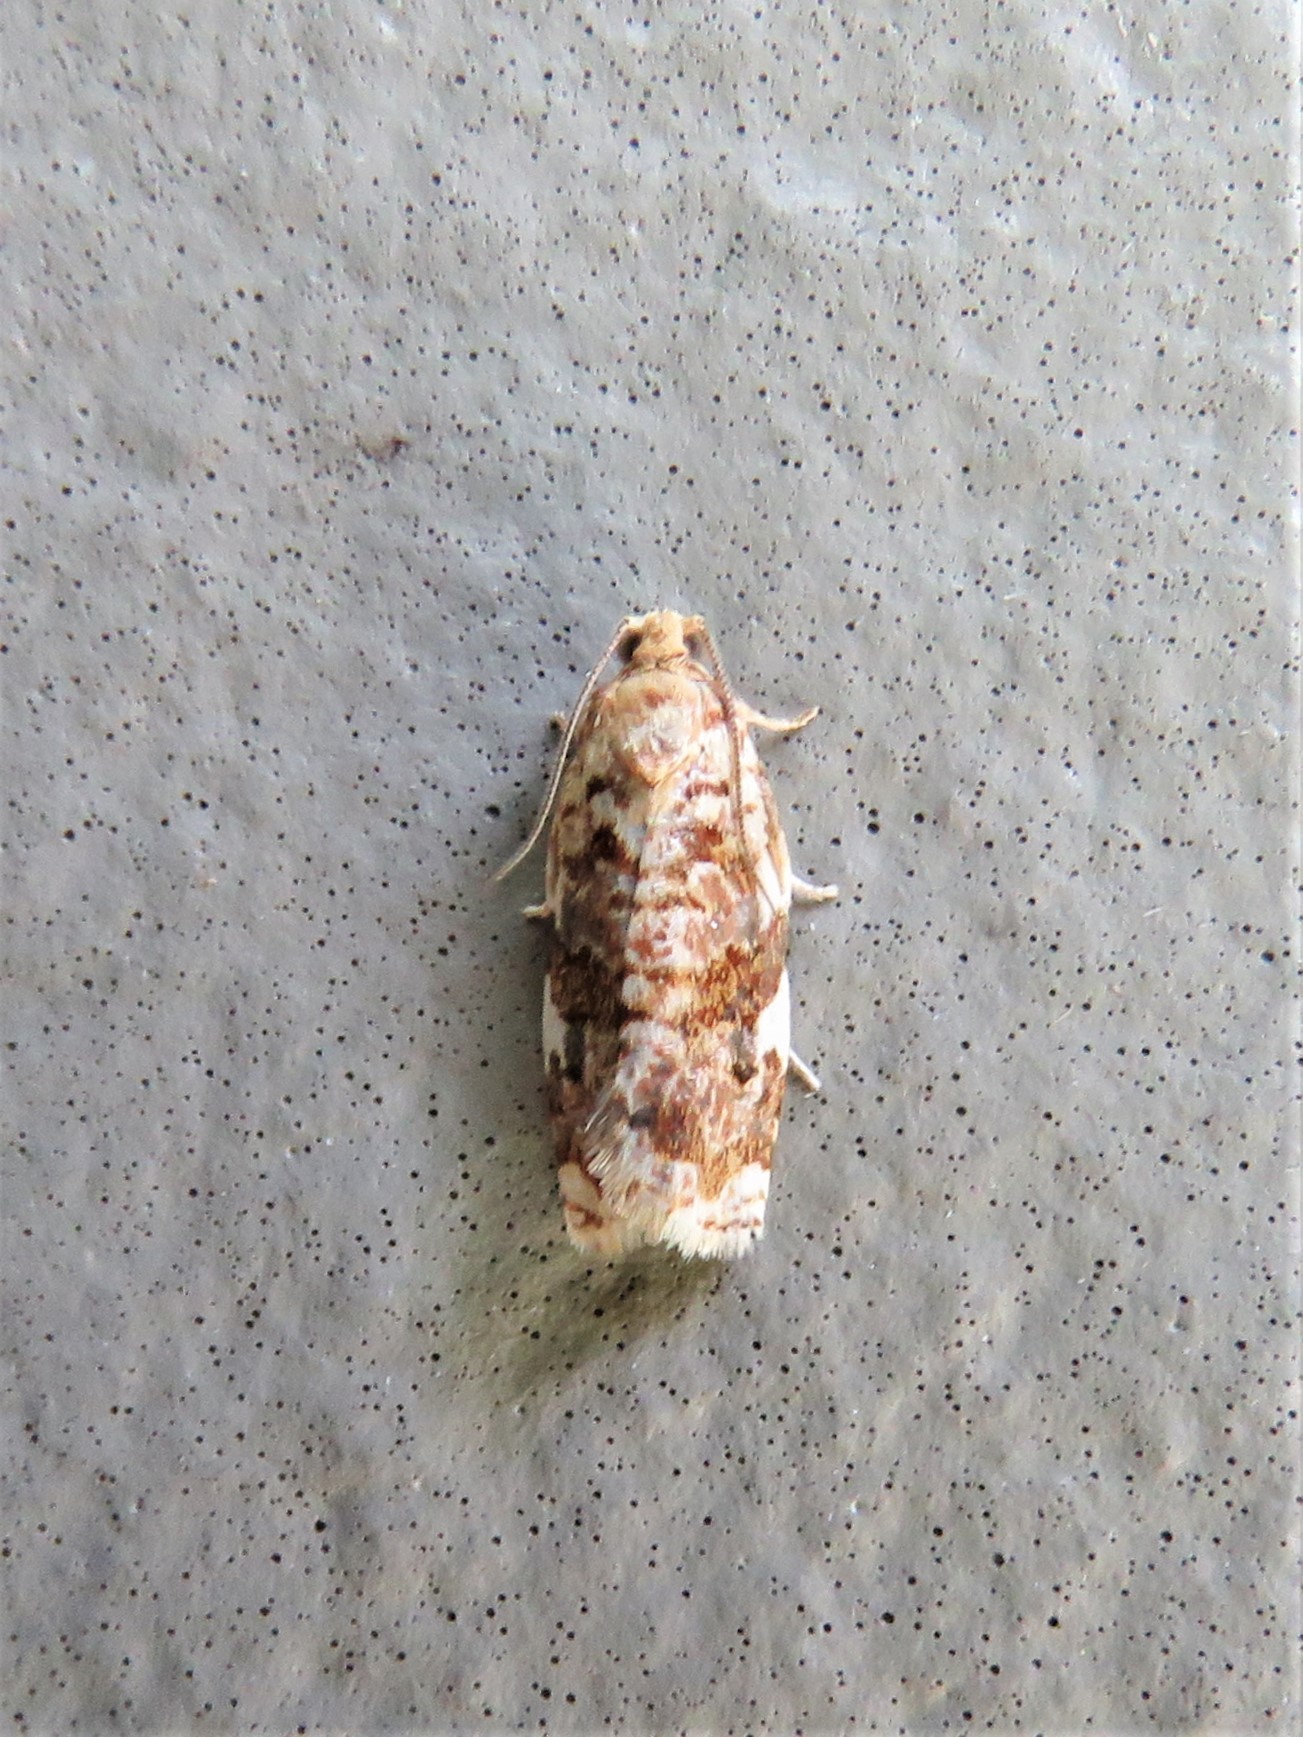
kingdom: Animalia
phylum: Arthropoda
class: Insecta
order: Lepidoptera
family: Tortricidae
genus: Archips
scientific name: Archips argyrospila
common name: Fruit-tree leafroller moth
